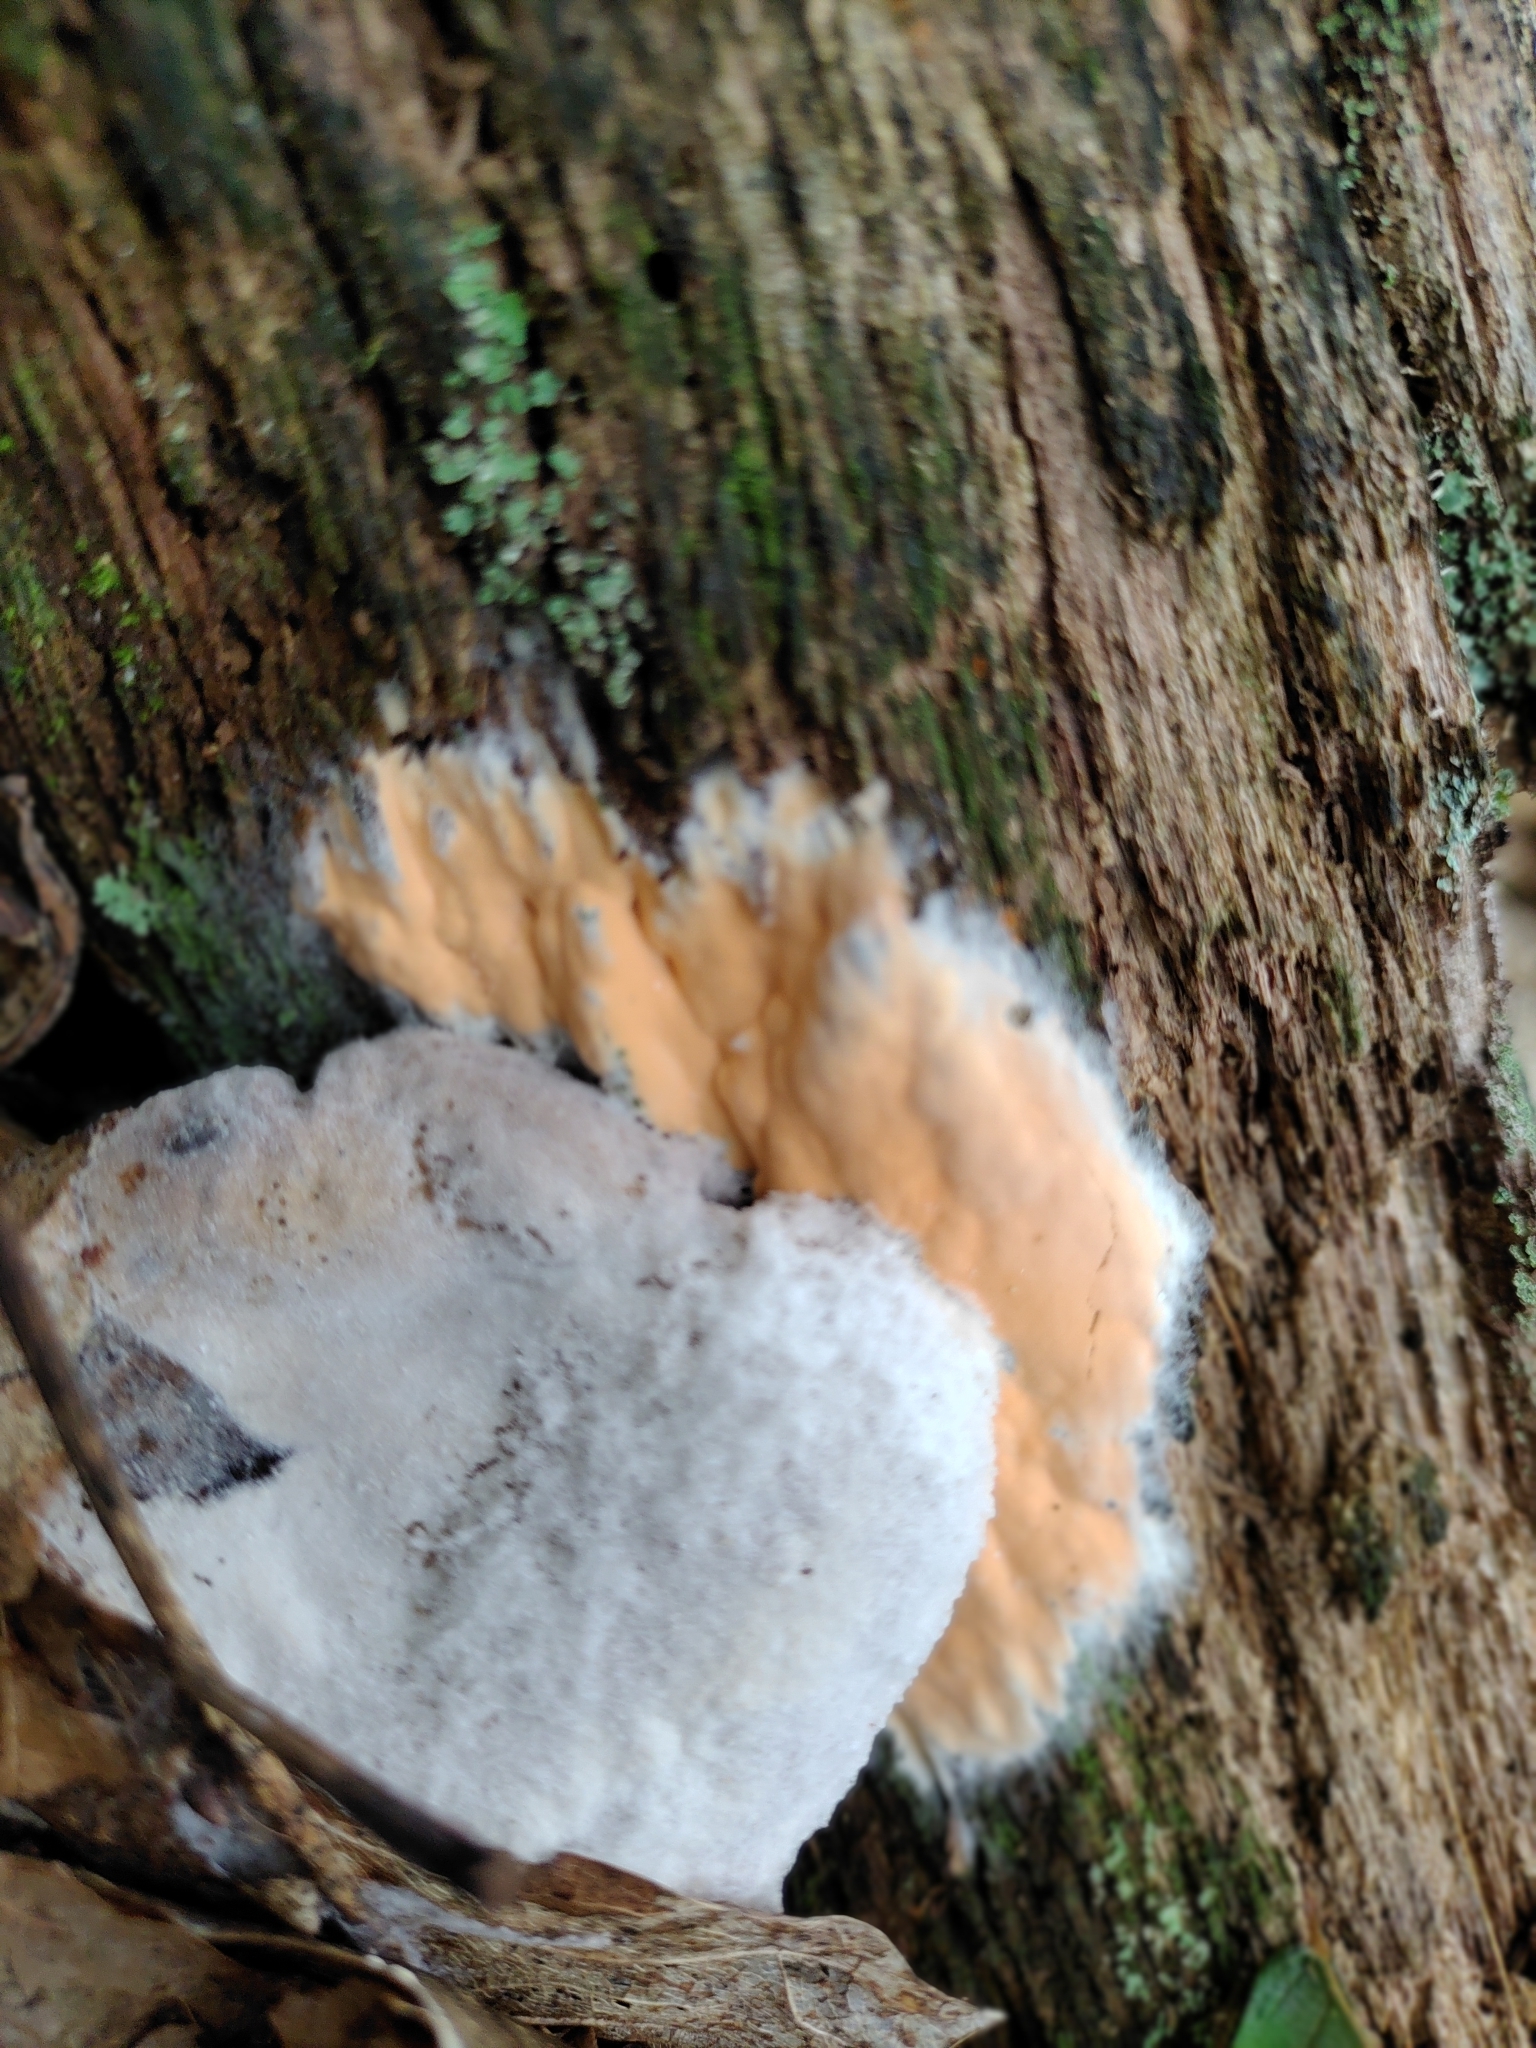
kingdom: Fungi
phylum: Ascomycota
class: Sordariomycetes
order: Hypocreales
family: Hypocreaceae
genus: Hypomyces
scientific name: Hypomyces armeniacus
